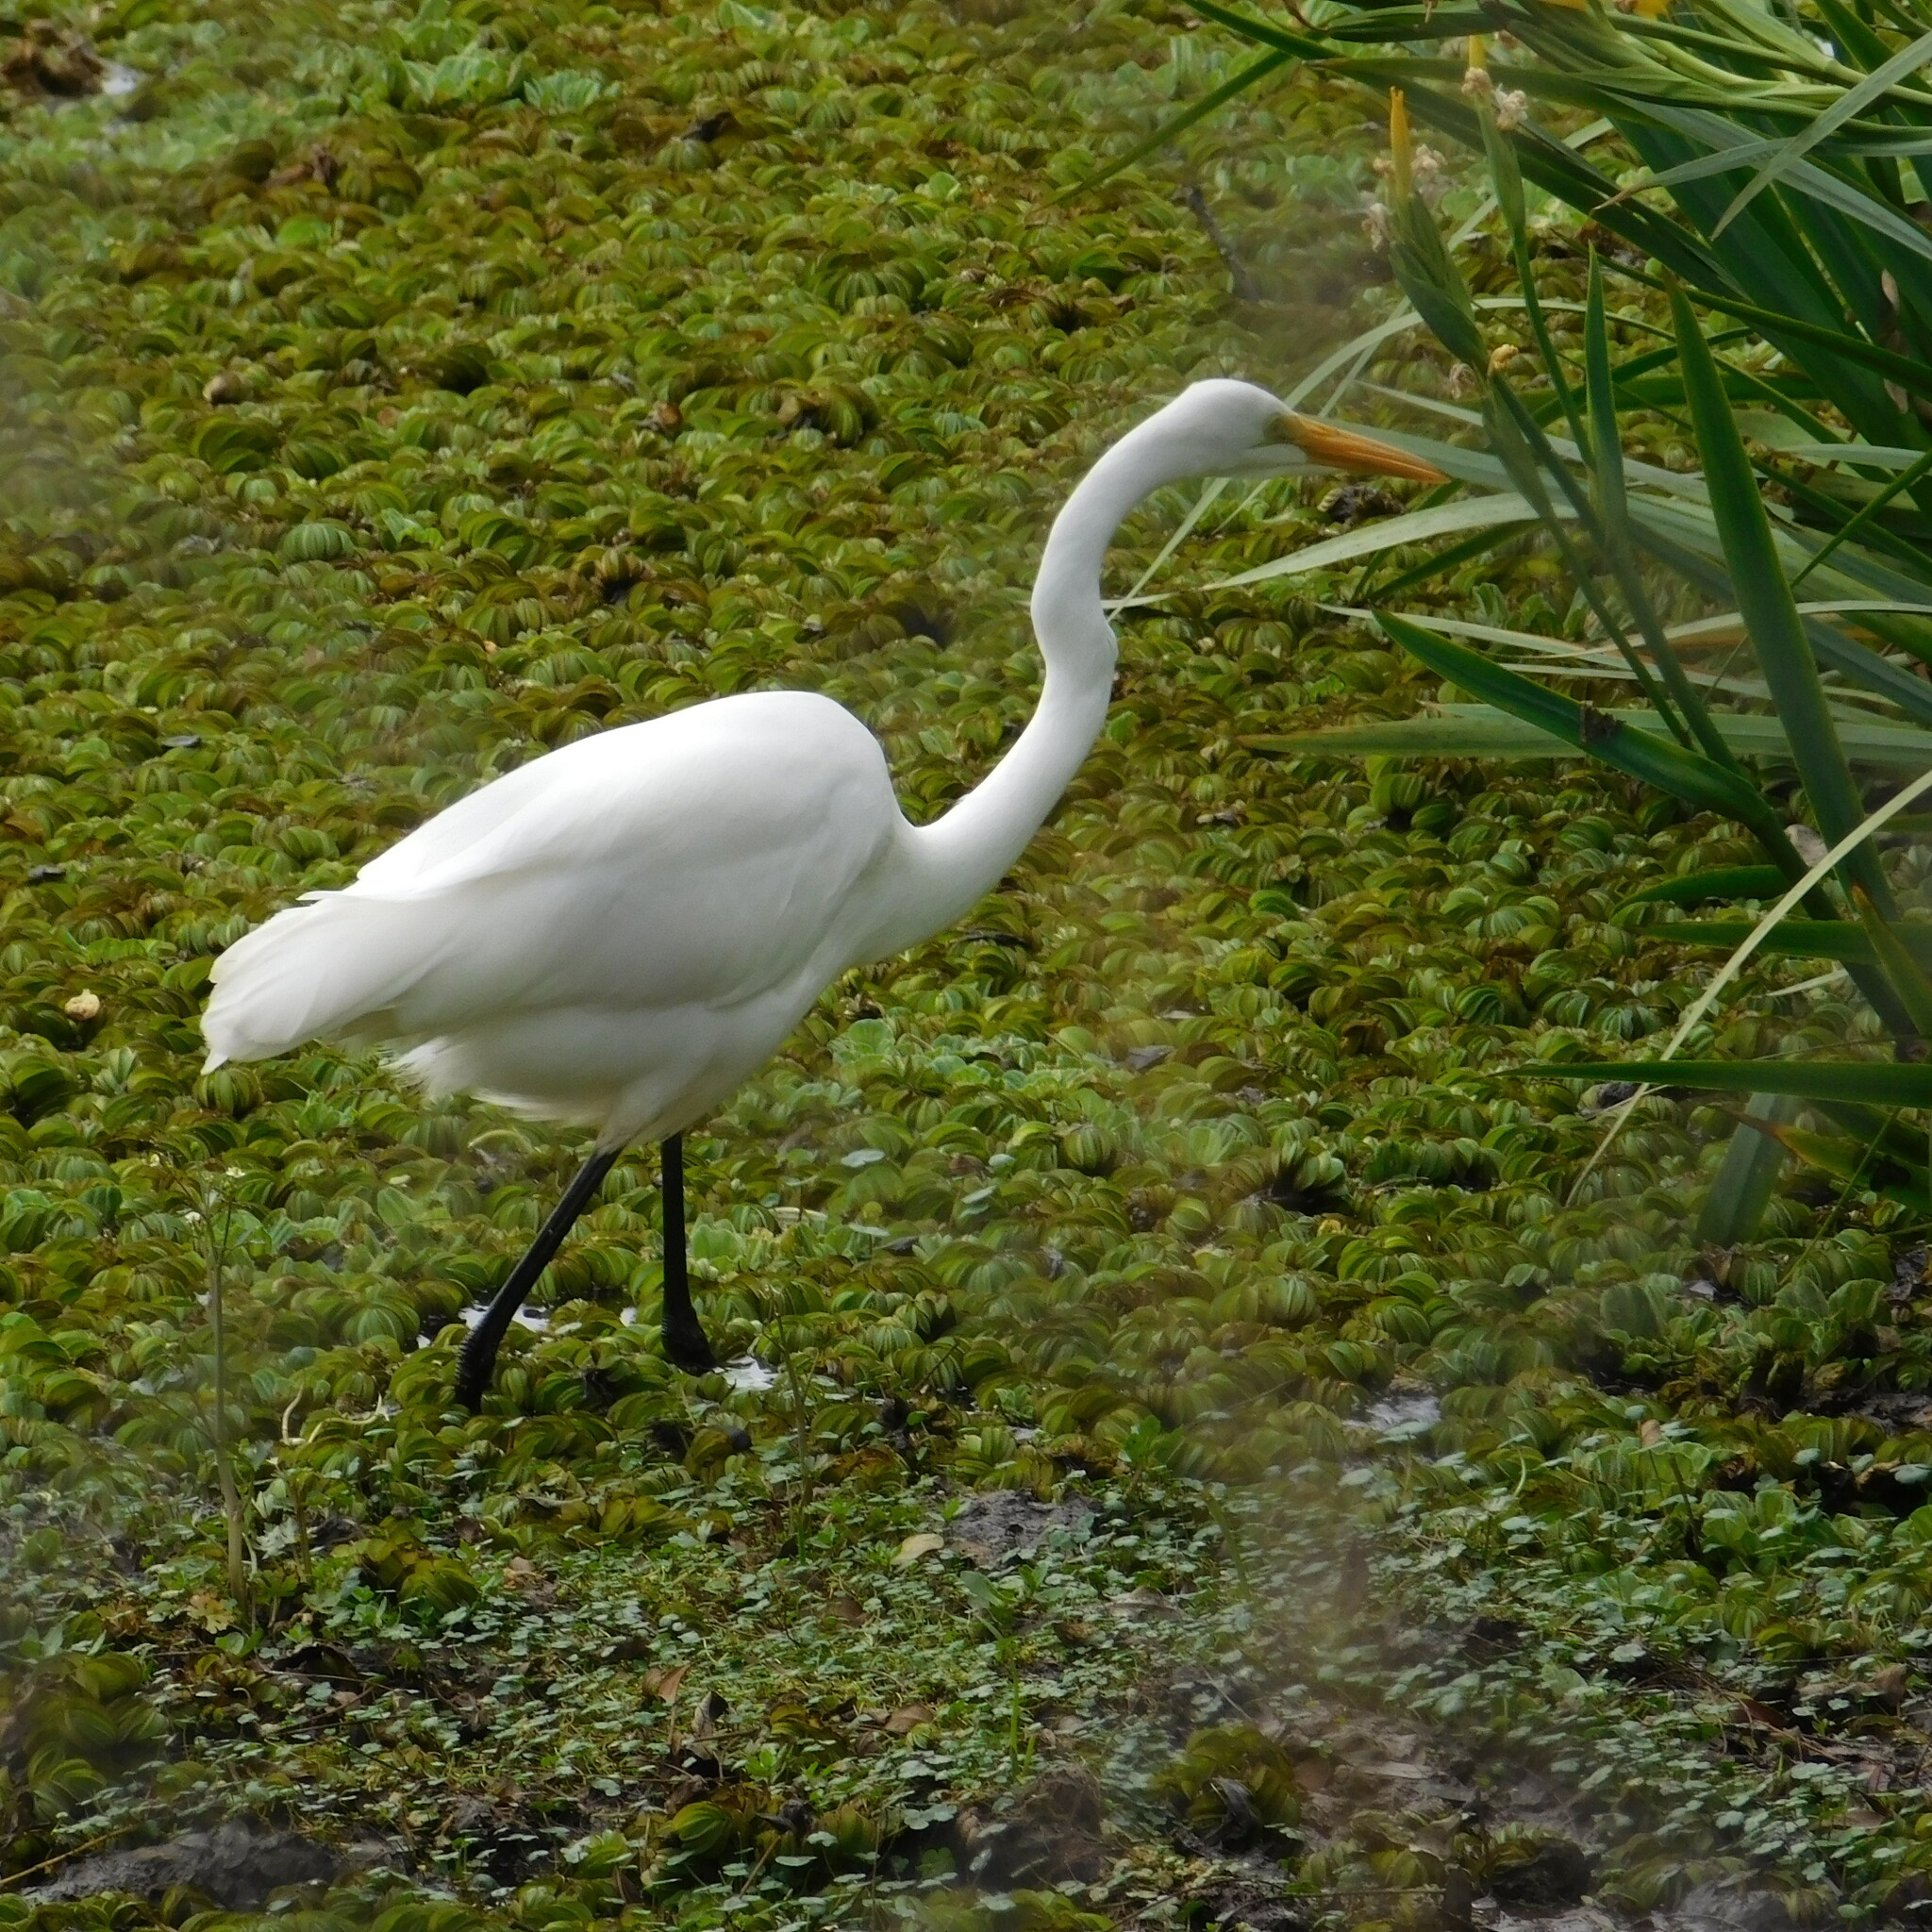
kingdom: Animalia
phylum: Chordata
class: Aves
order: Pelecaniformes
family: Ardeidae
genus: Ardea
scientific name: Ardea alba
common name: Great egret
